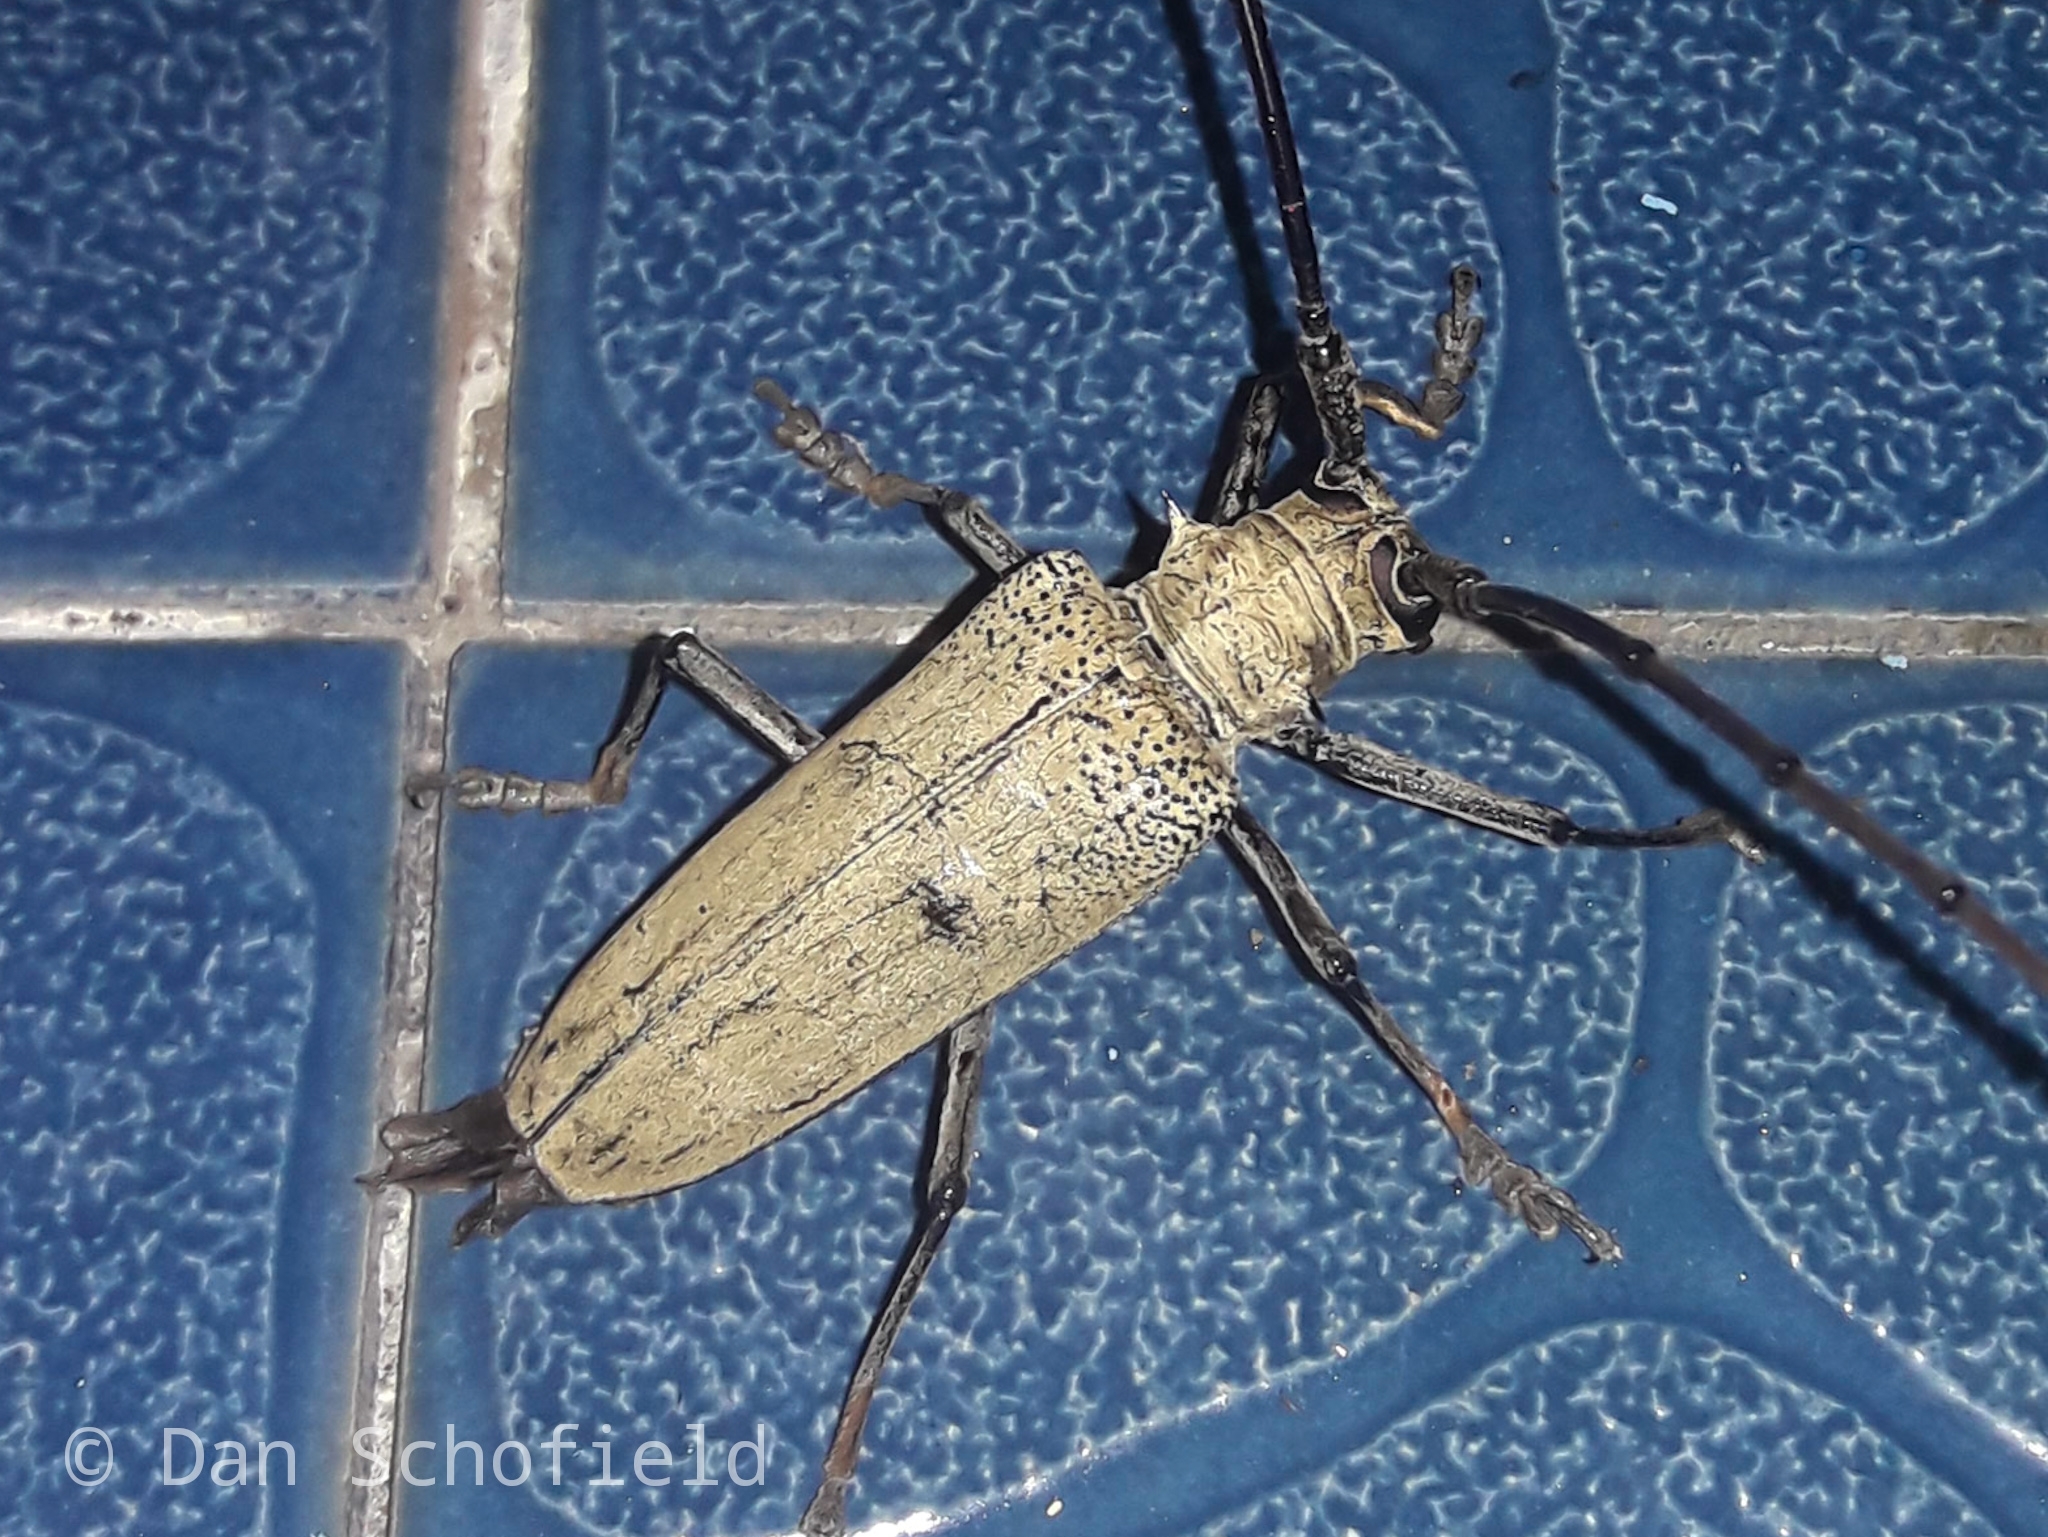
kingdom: Animalia
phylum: Arthropoda
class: Insecta
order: Coleoptera
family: Cerambycidae
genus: Batocera
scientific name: Batocera hercules
